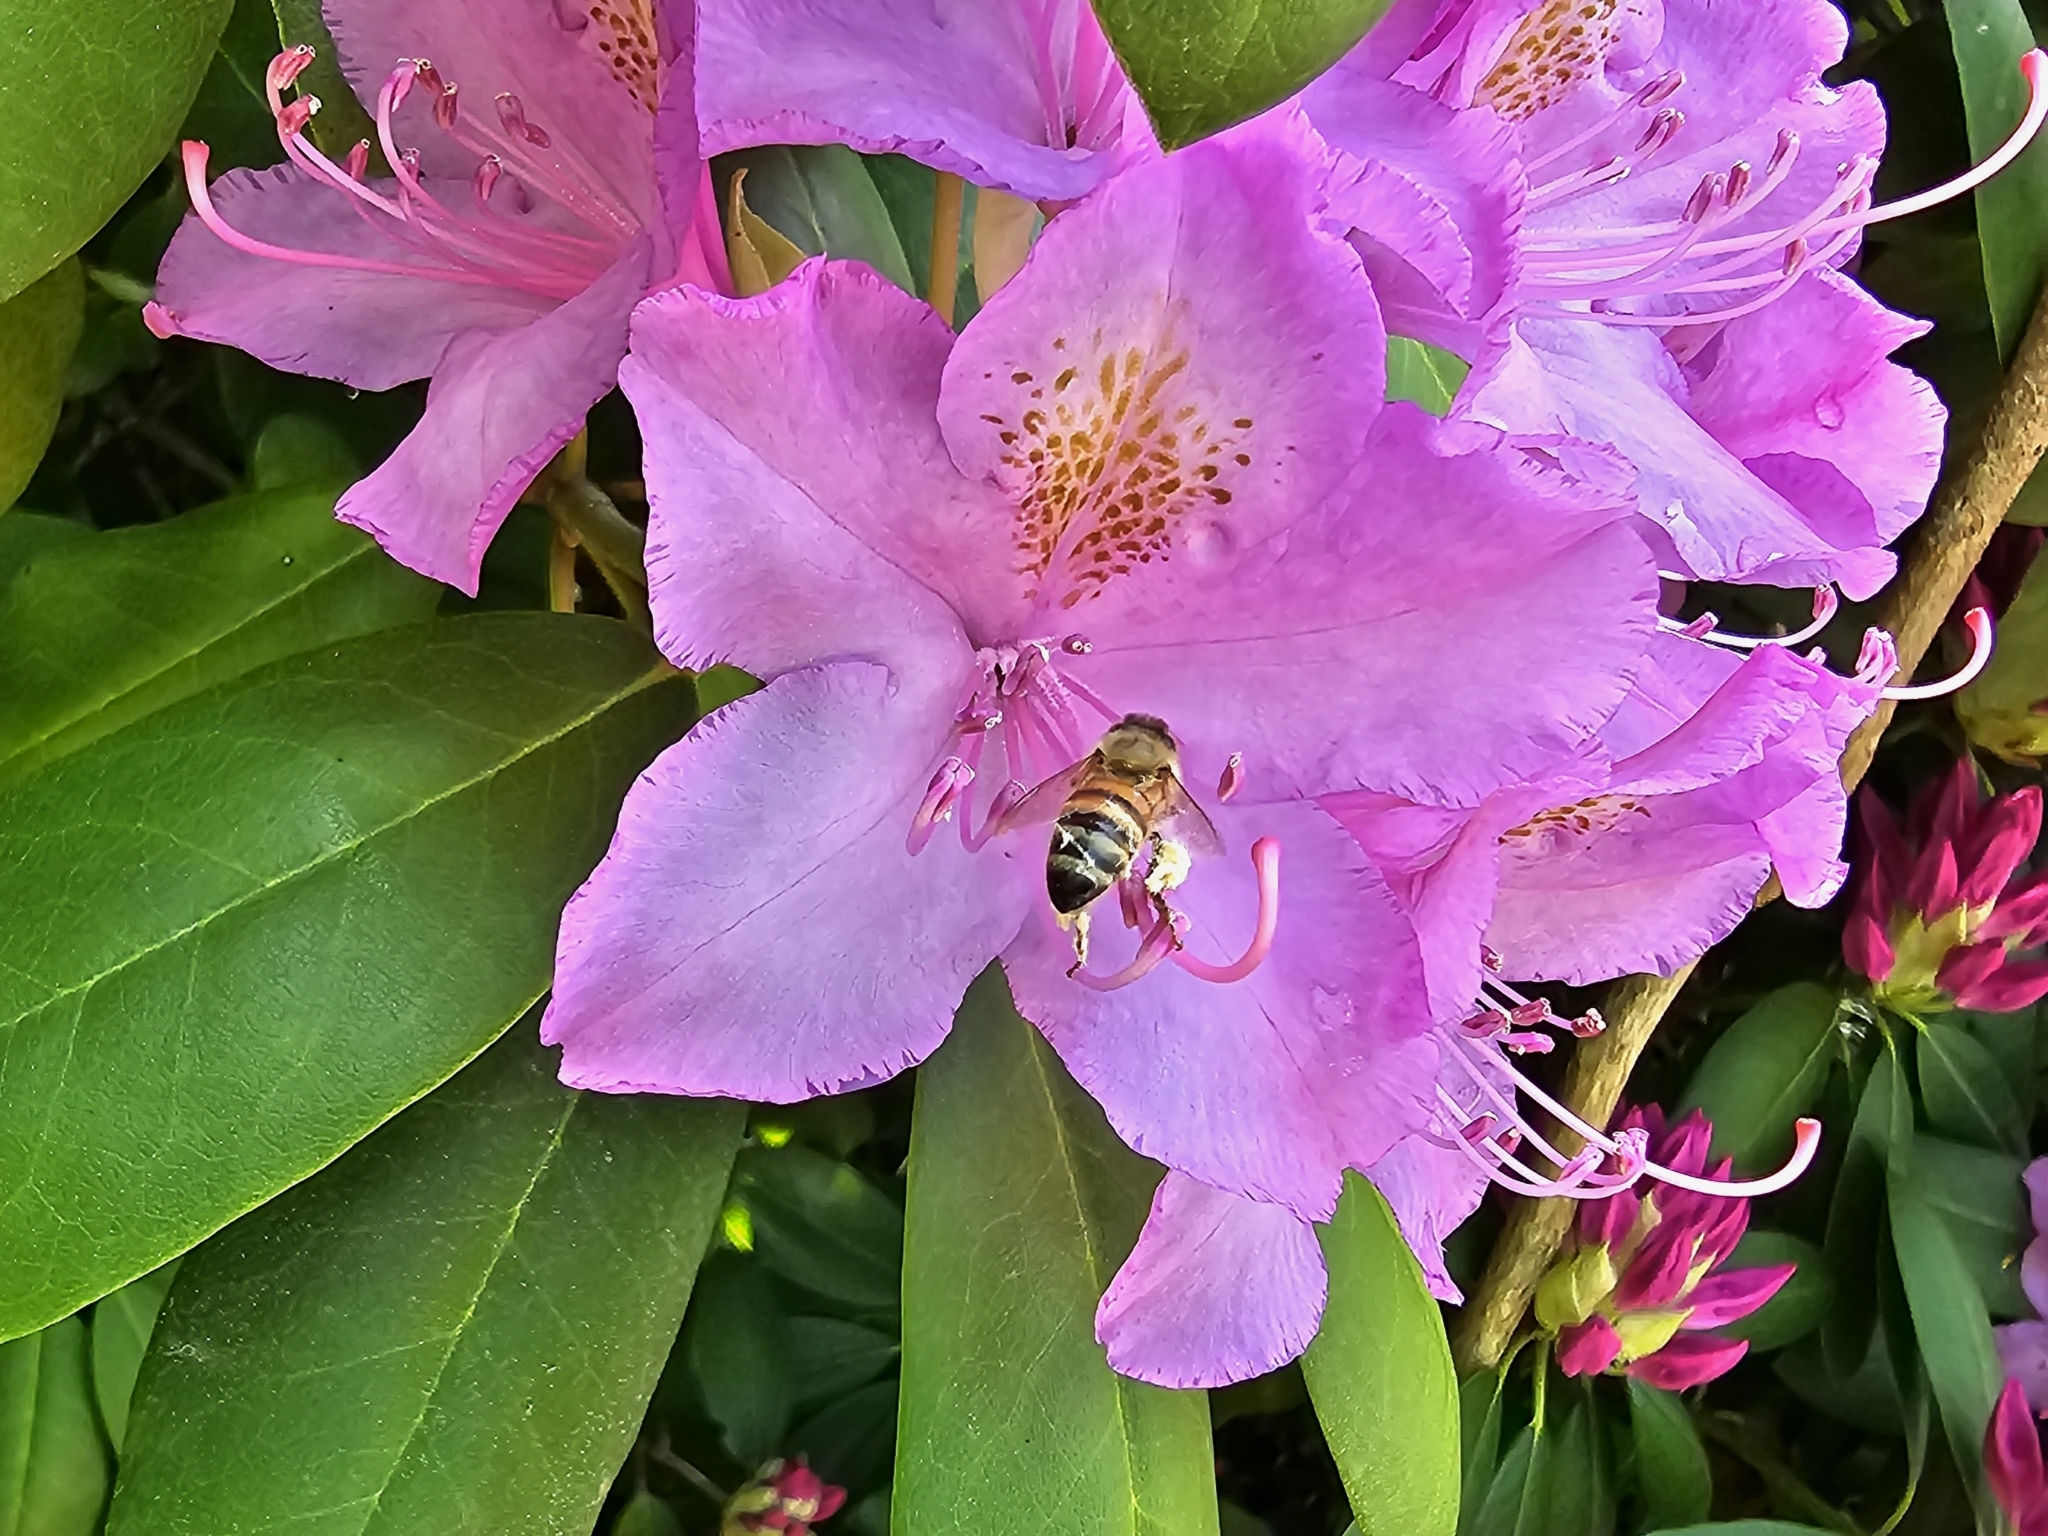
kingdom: Animalia
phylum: Arthropoda
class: Insecta
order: Hymenoptera
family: Apidae
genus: Apis
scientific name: Apis mellifera
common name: Honey bee
